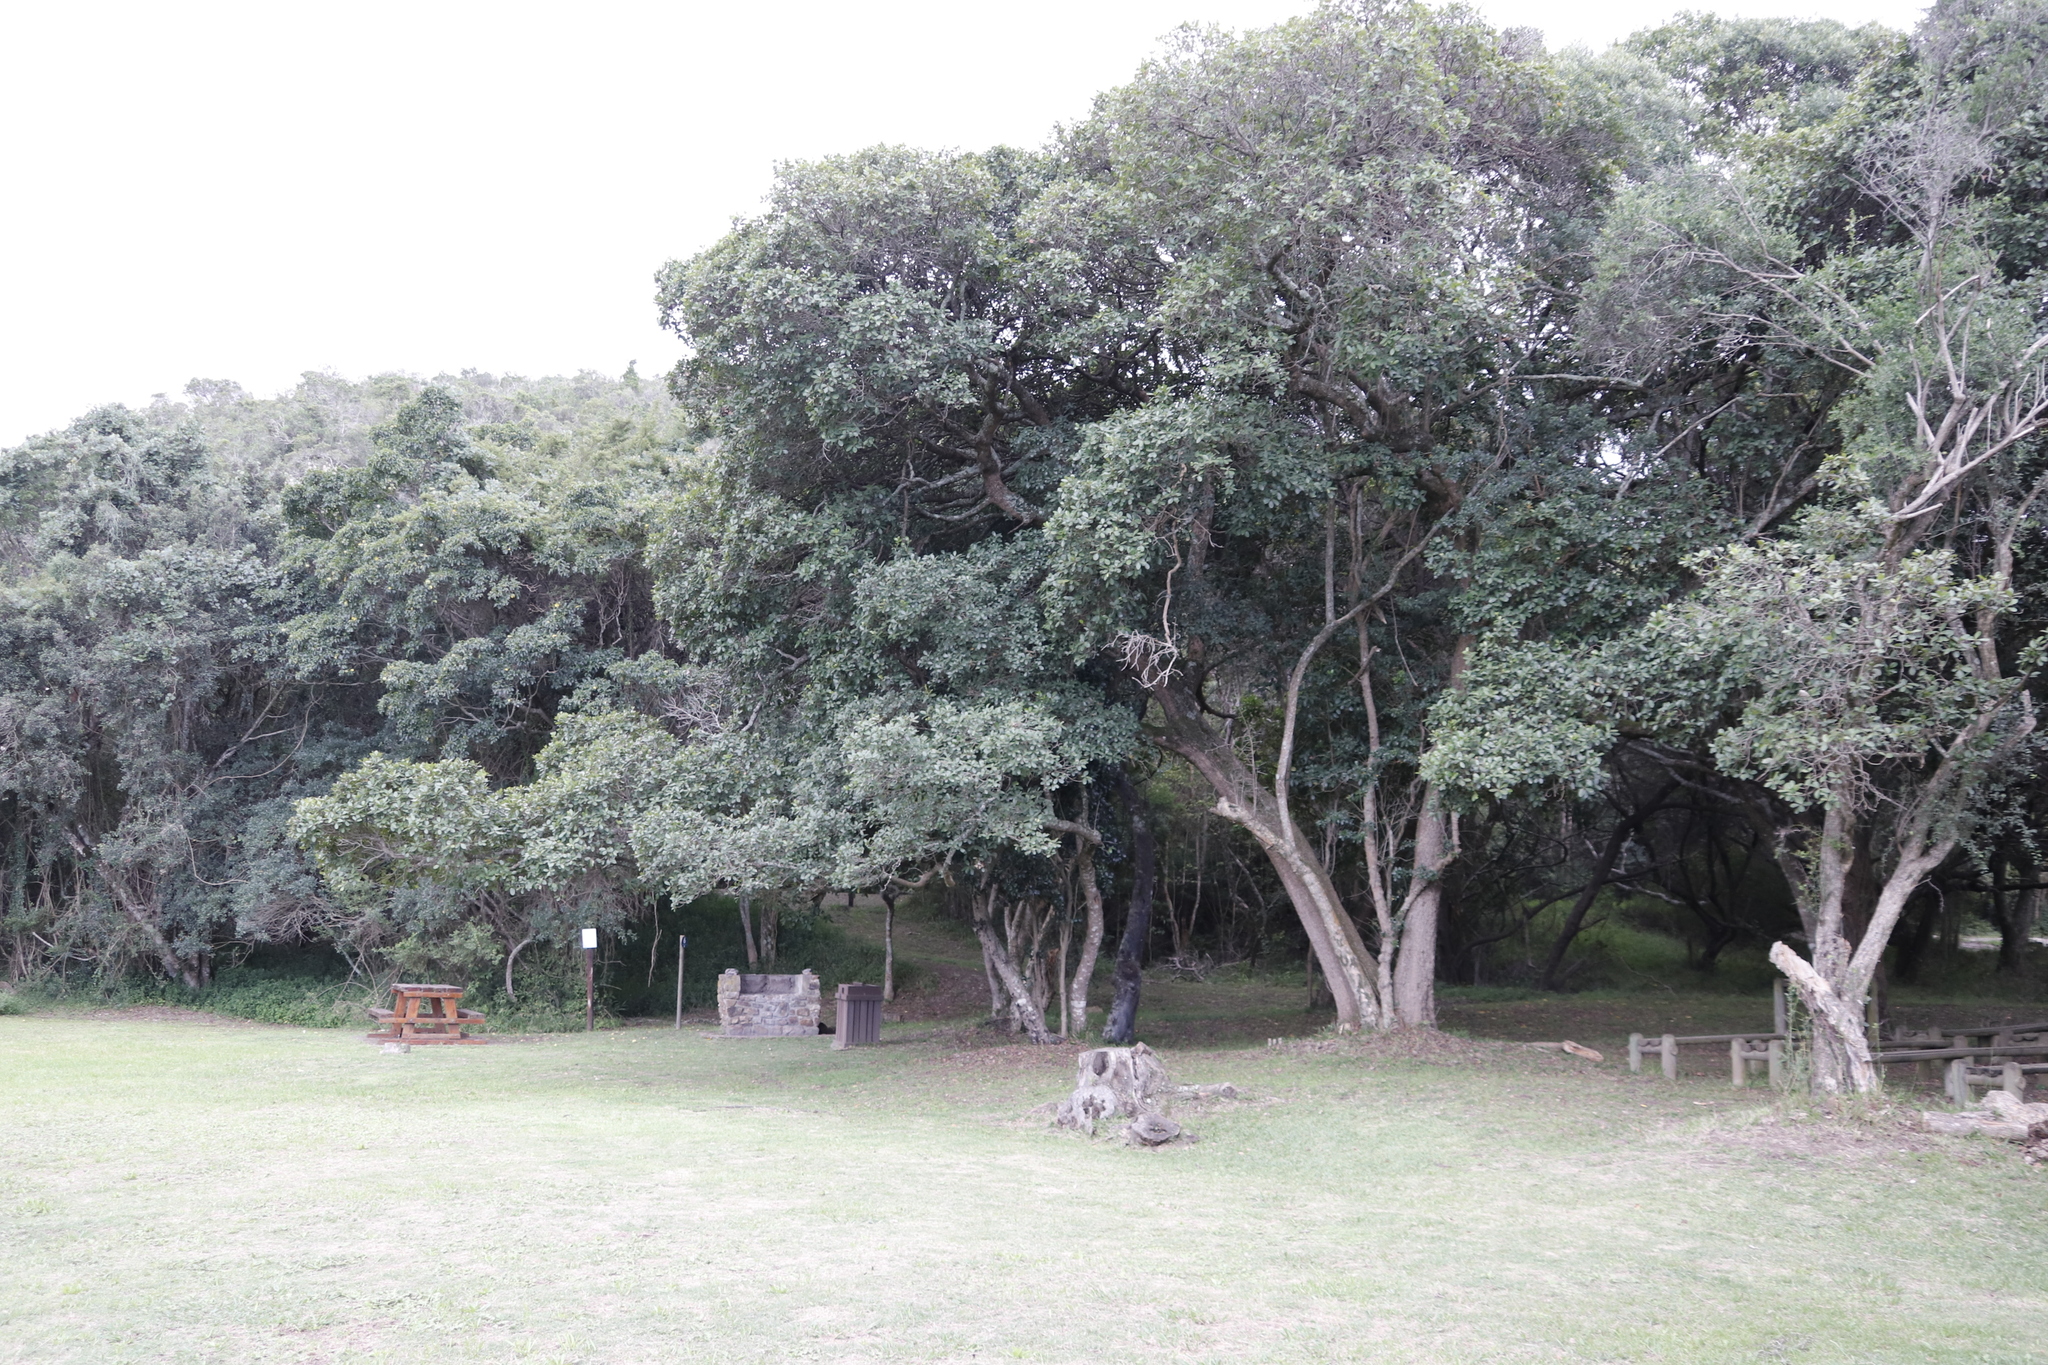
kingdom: Plantae
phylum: Tracheophyta
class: Magnoliopsida
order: Ericales
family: Sapotaceae
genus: Sideroxylon
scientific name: Sideroxylon inerme
